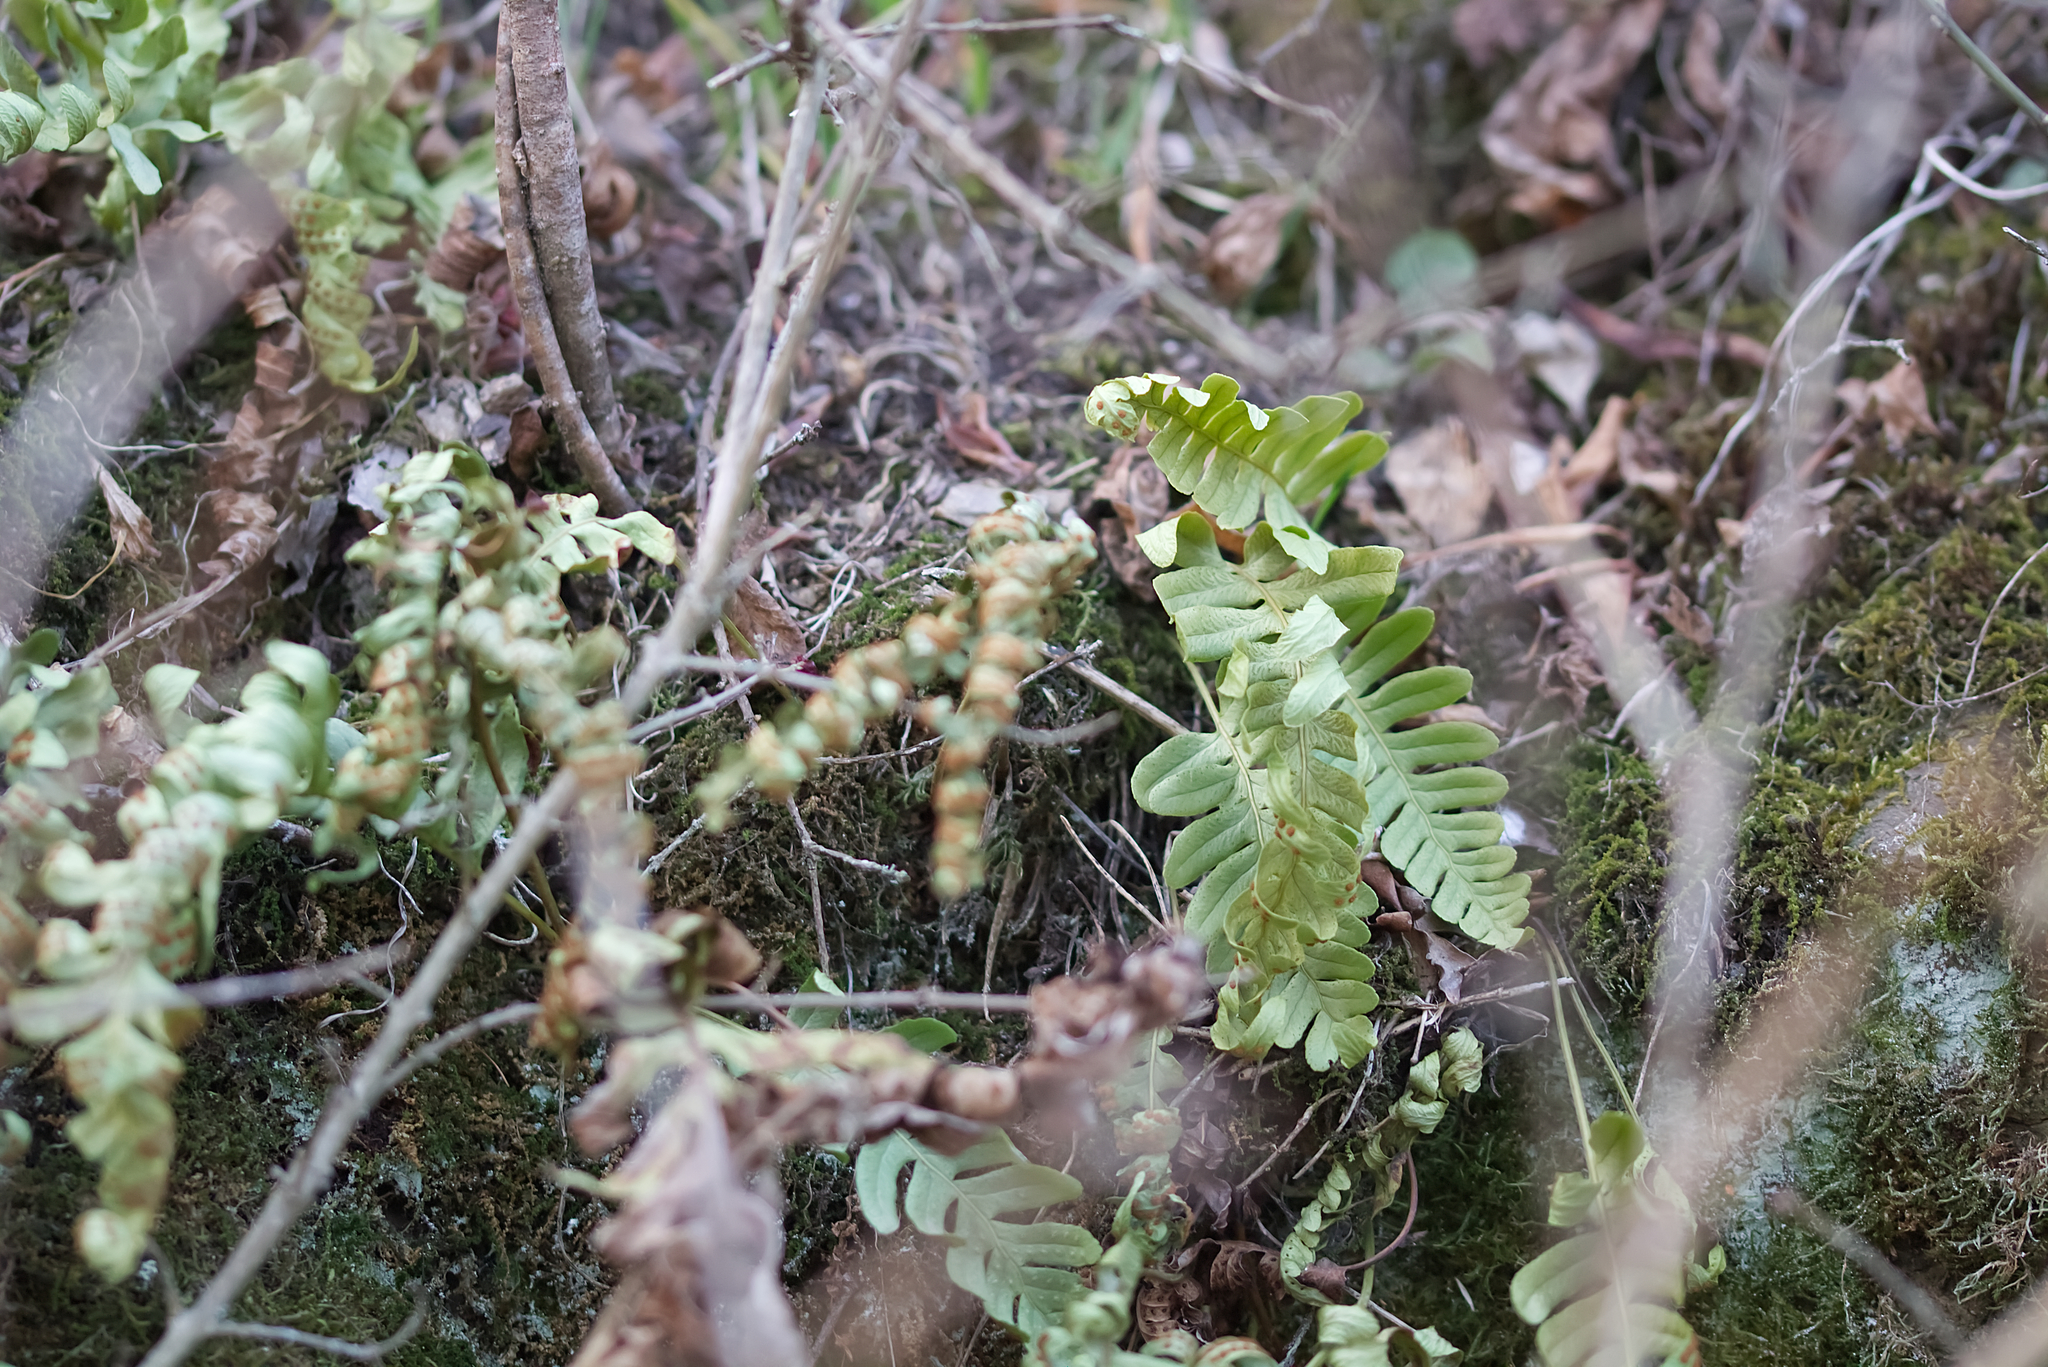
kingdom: Plantae
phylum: Tracheophyta
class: Polypodiopsida
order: Polypodiales
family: Polypodiaceae
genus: Polypodium
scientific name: Polypodium vulgare
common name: Common polypody
